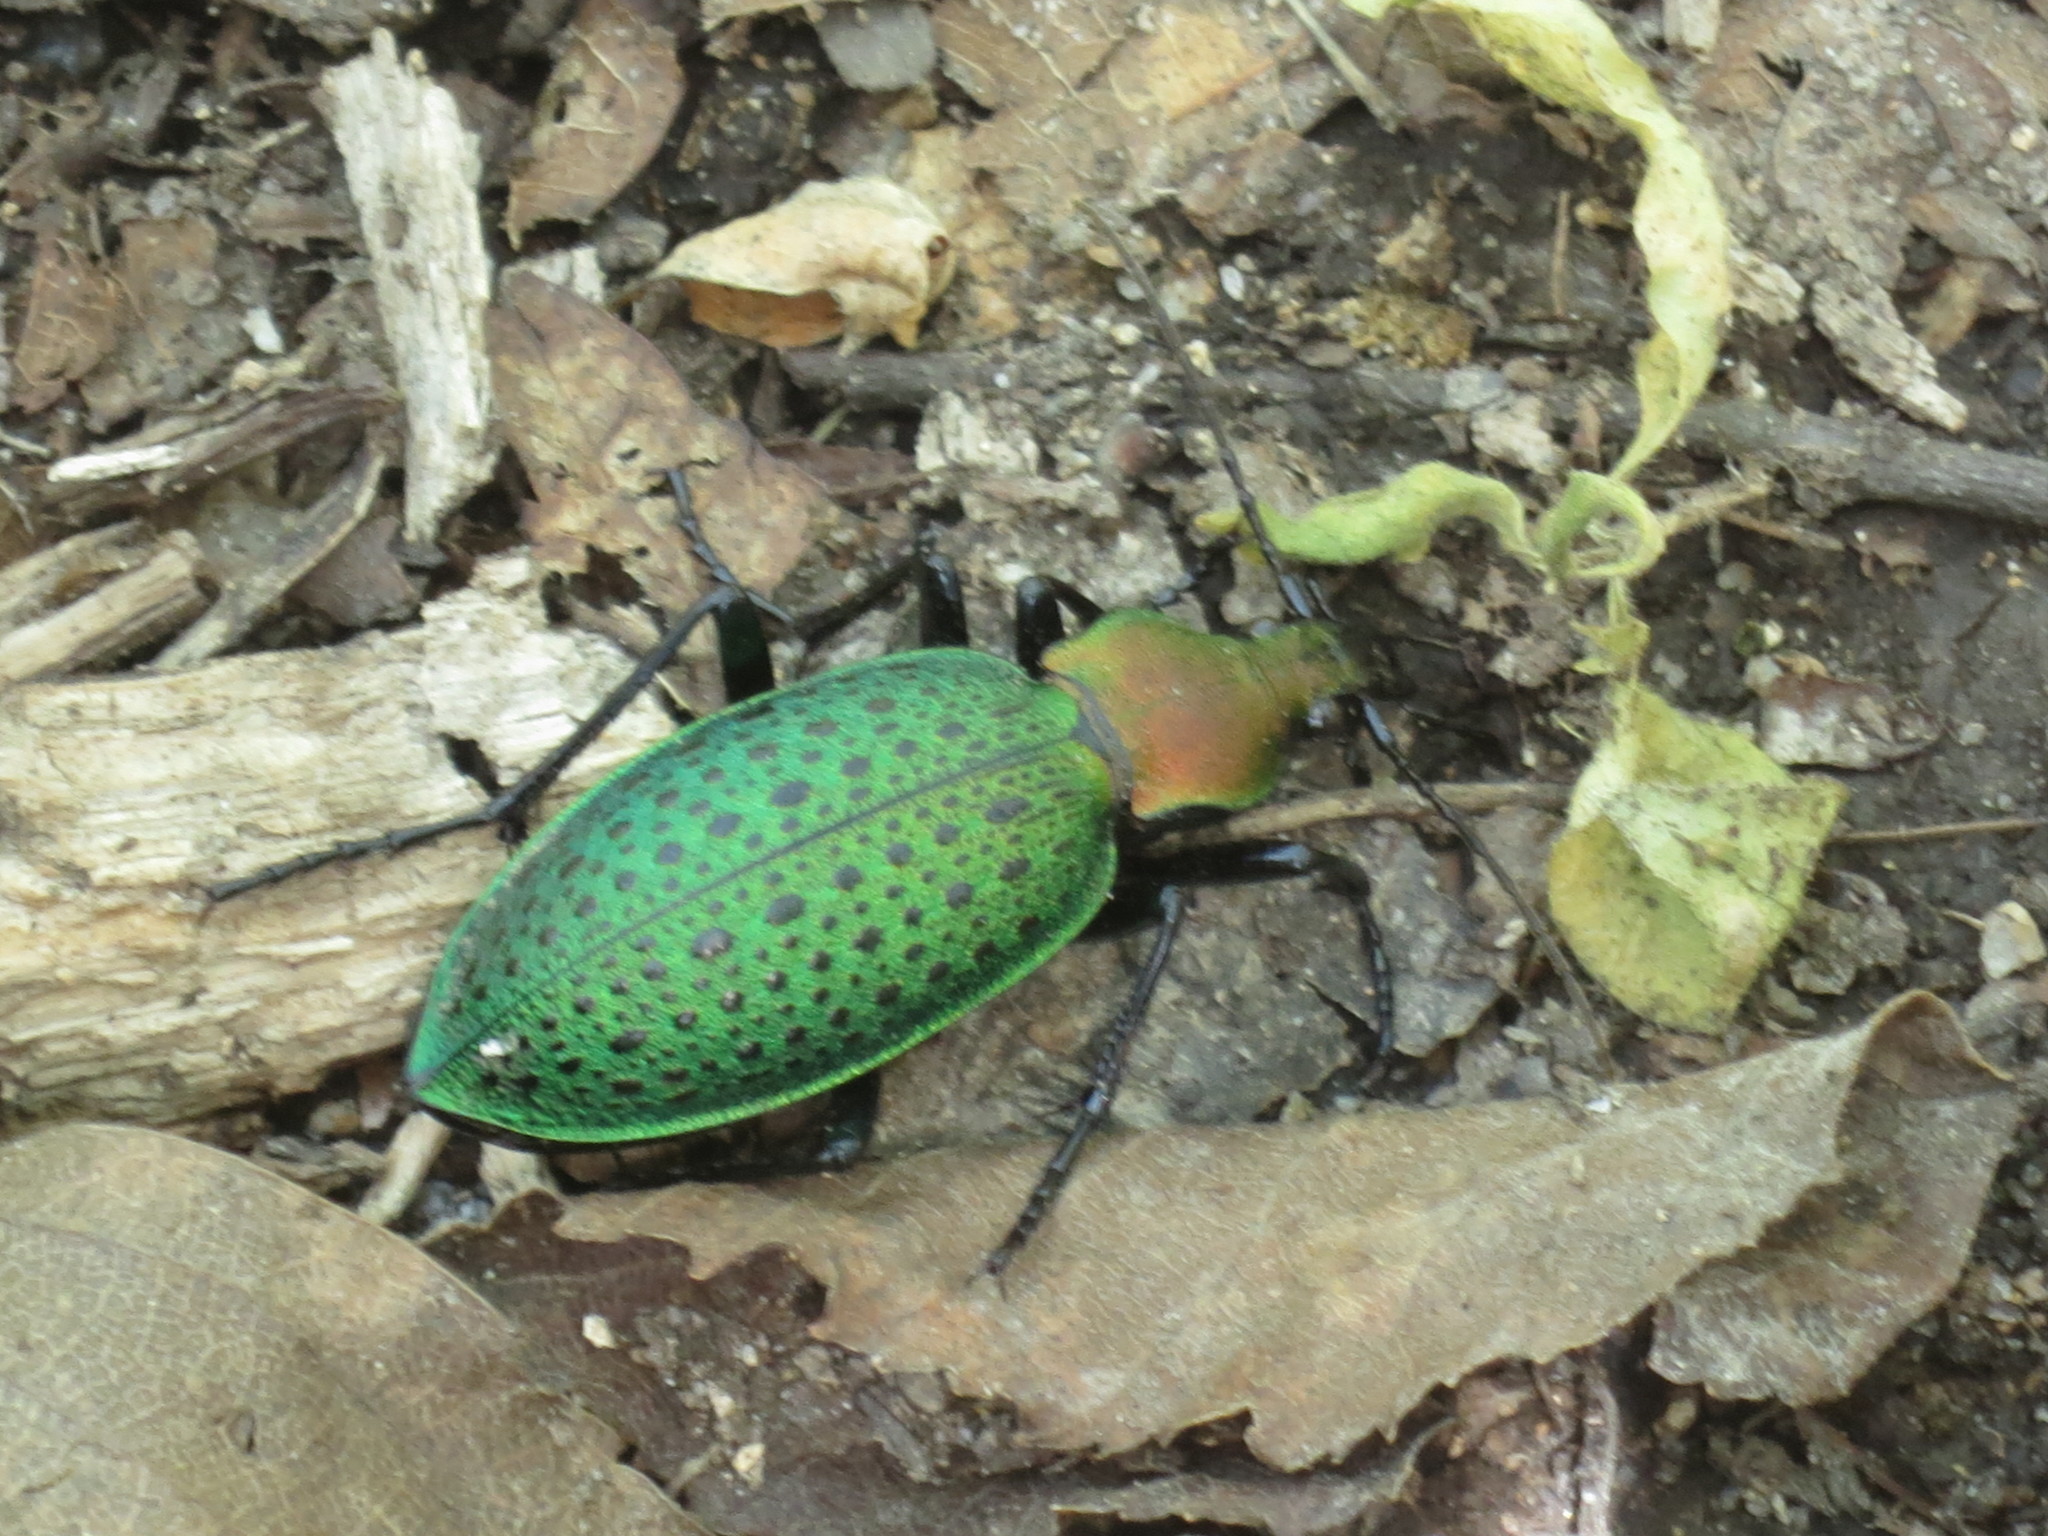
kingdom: Animalia
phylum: Arthropoda
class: Insecta
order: Coleoptera
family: Carabidae
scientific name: Carabidae
